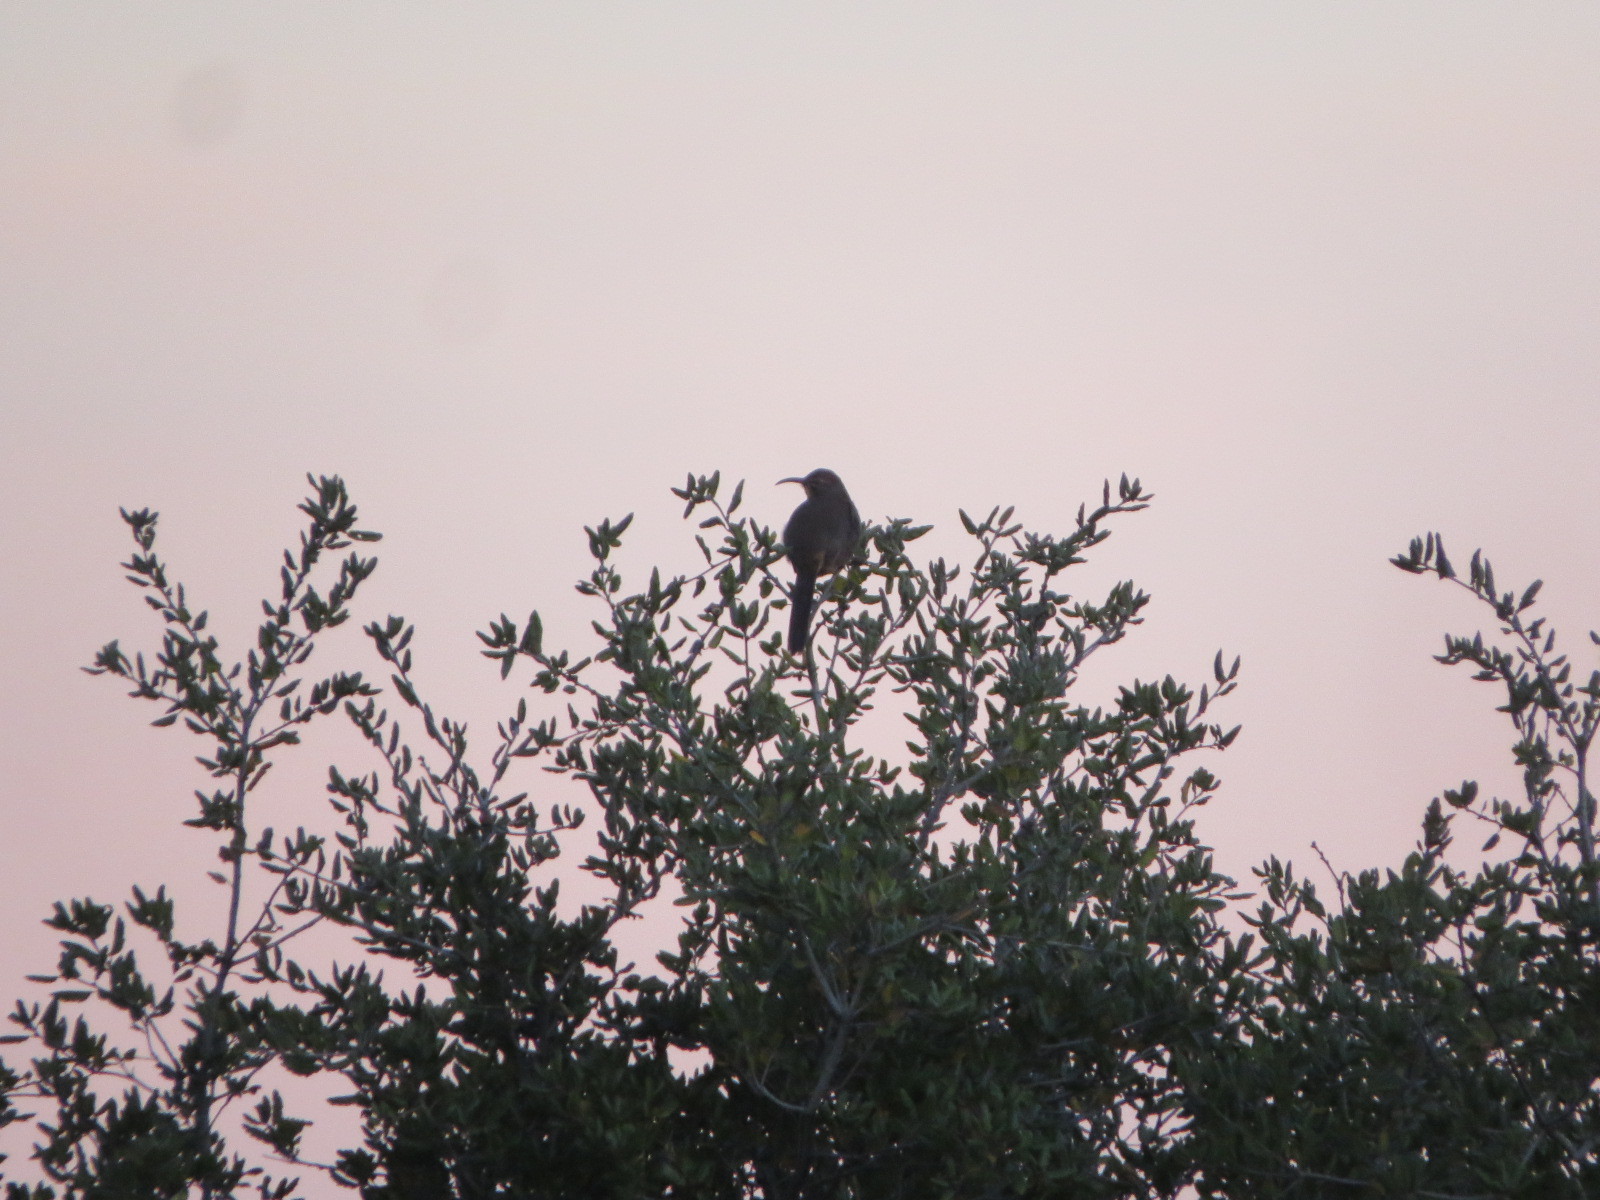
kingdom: Animalia
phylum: Chordata
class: Aves
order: Passeriformes
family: Mimidae
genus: Toxostoma
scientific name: Toxostoma redivivum
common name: California thrasher
